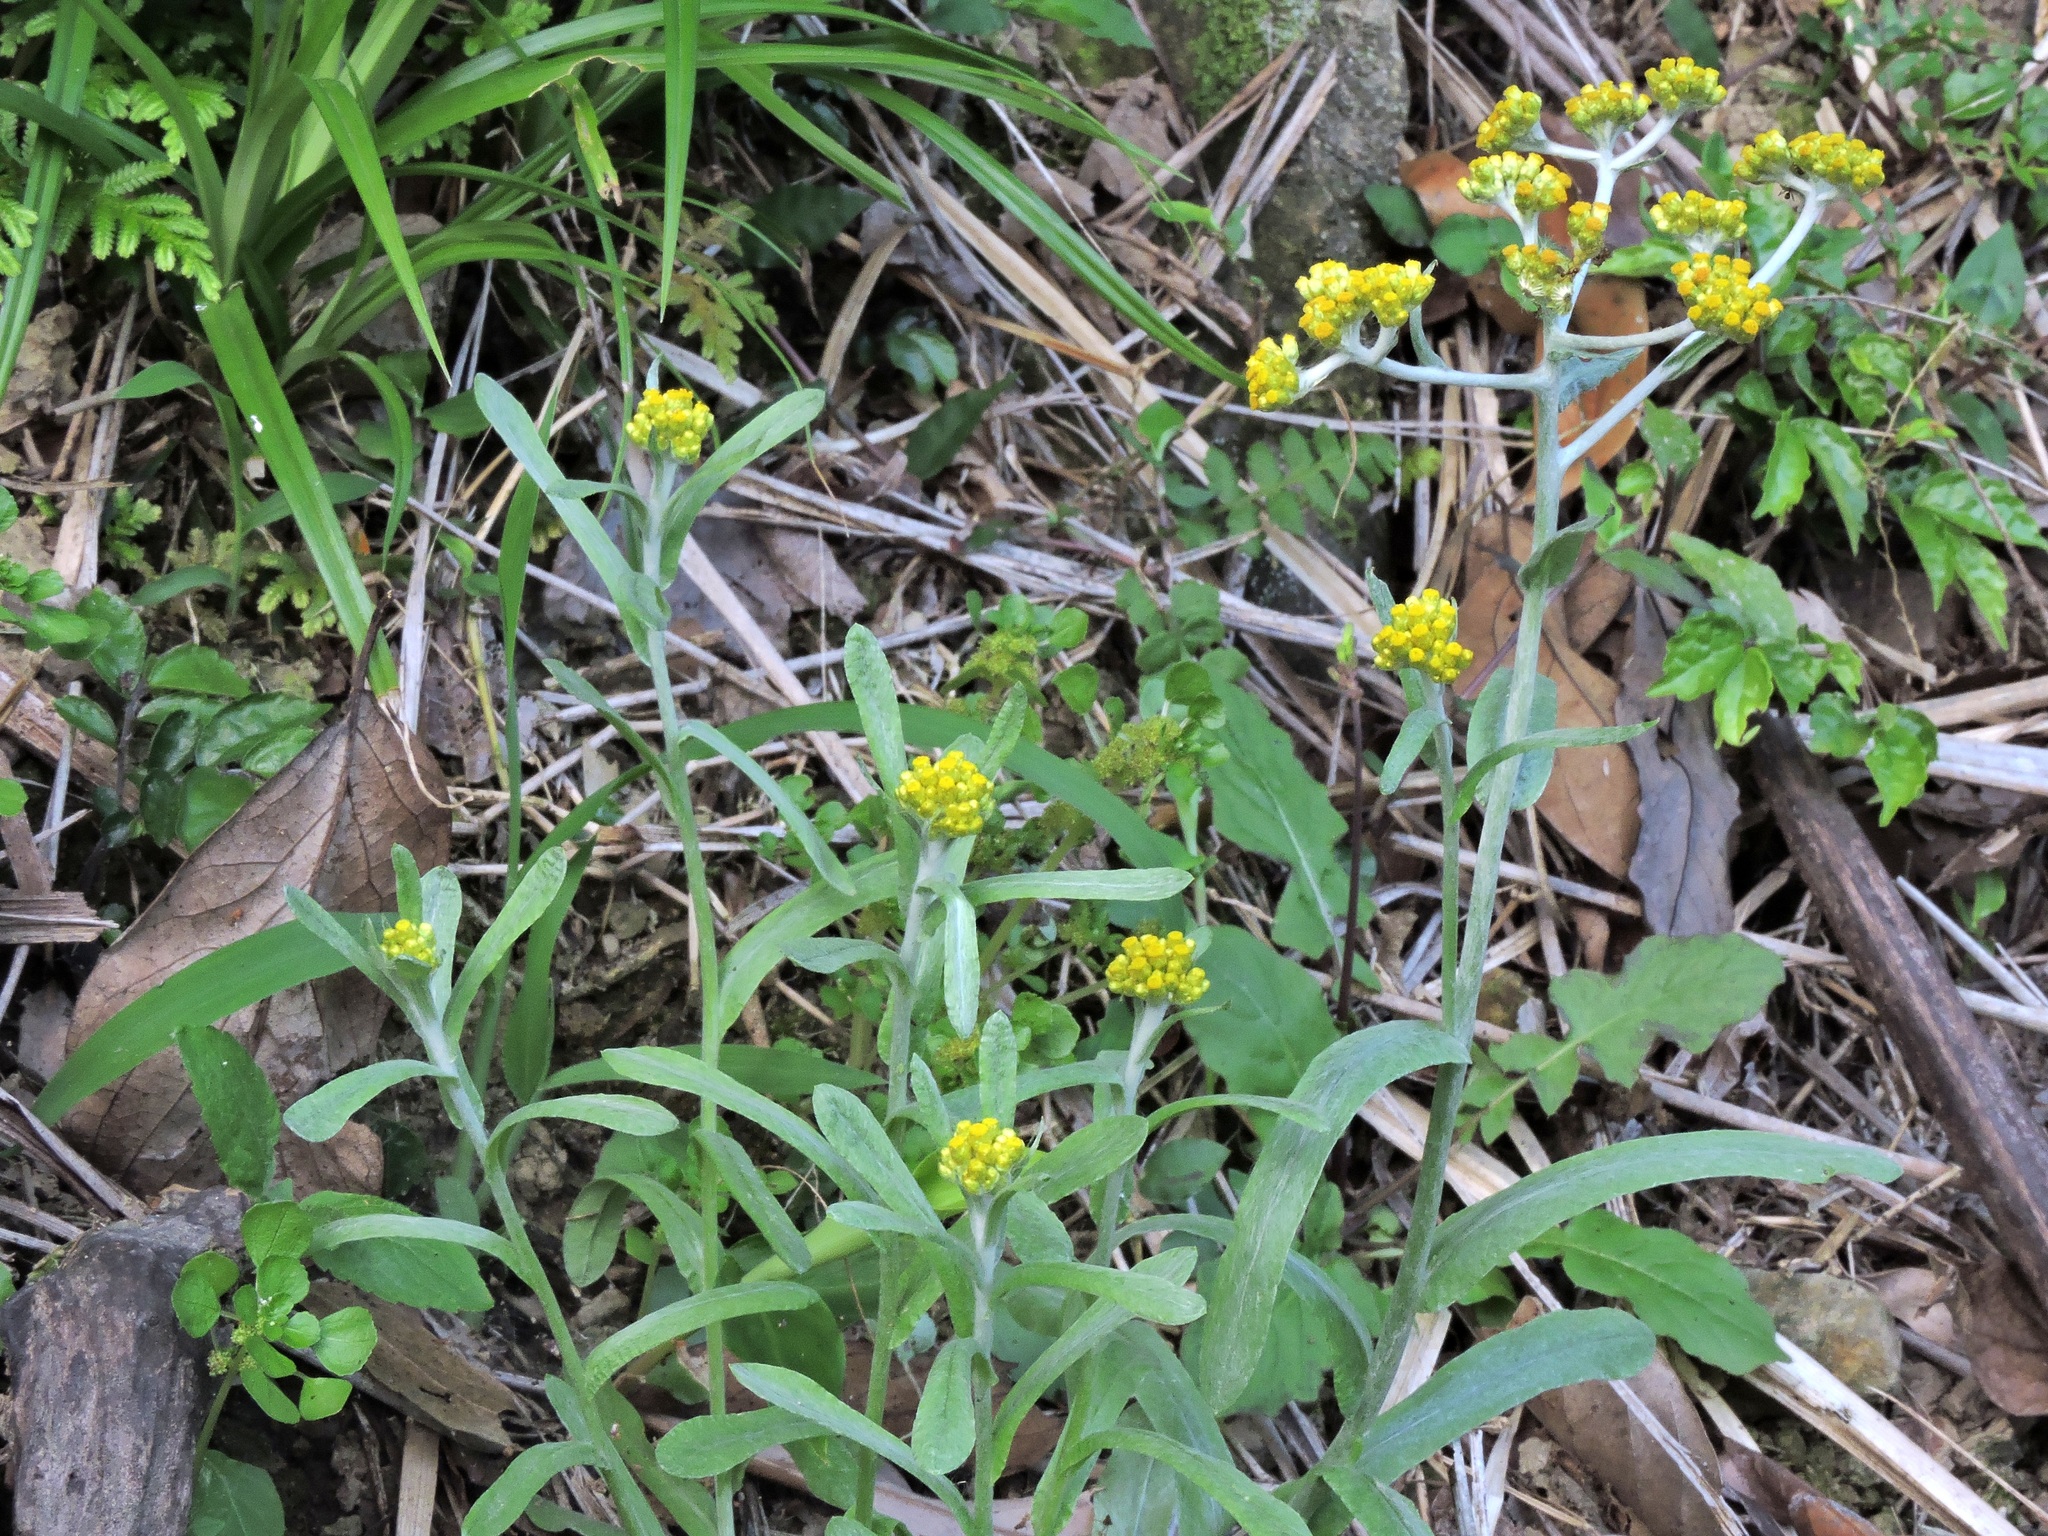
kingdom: Plantae
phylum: Tracheophyta
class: Magnoliopsida
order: Asterales
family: Asteraceae
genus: Pseudognaphalium
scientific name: Pseudognaphalium affine
